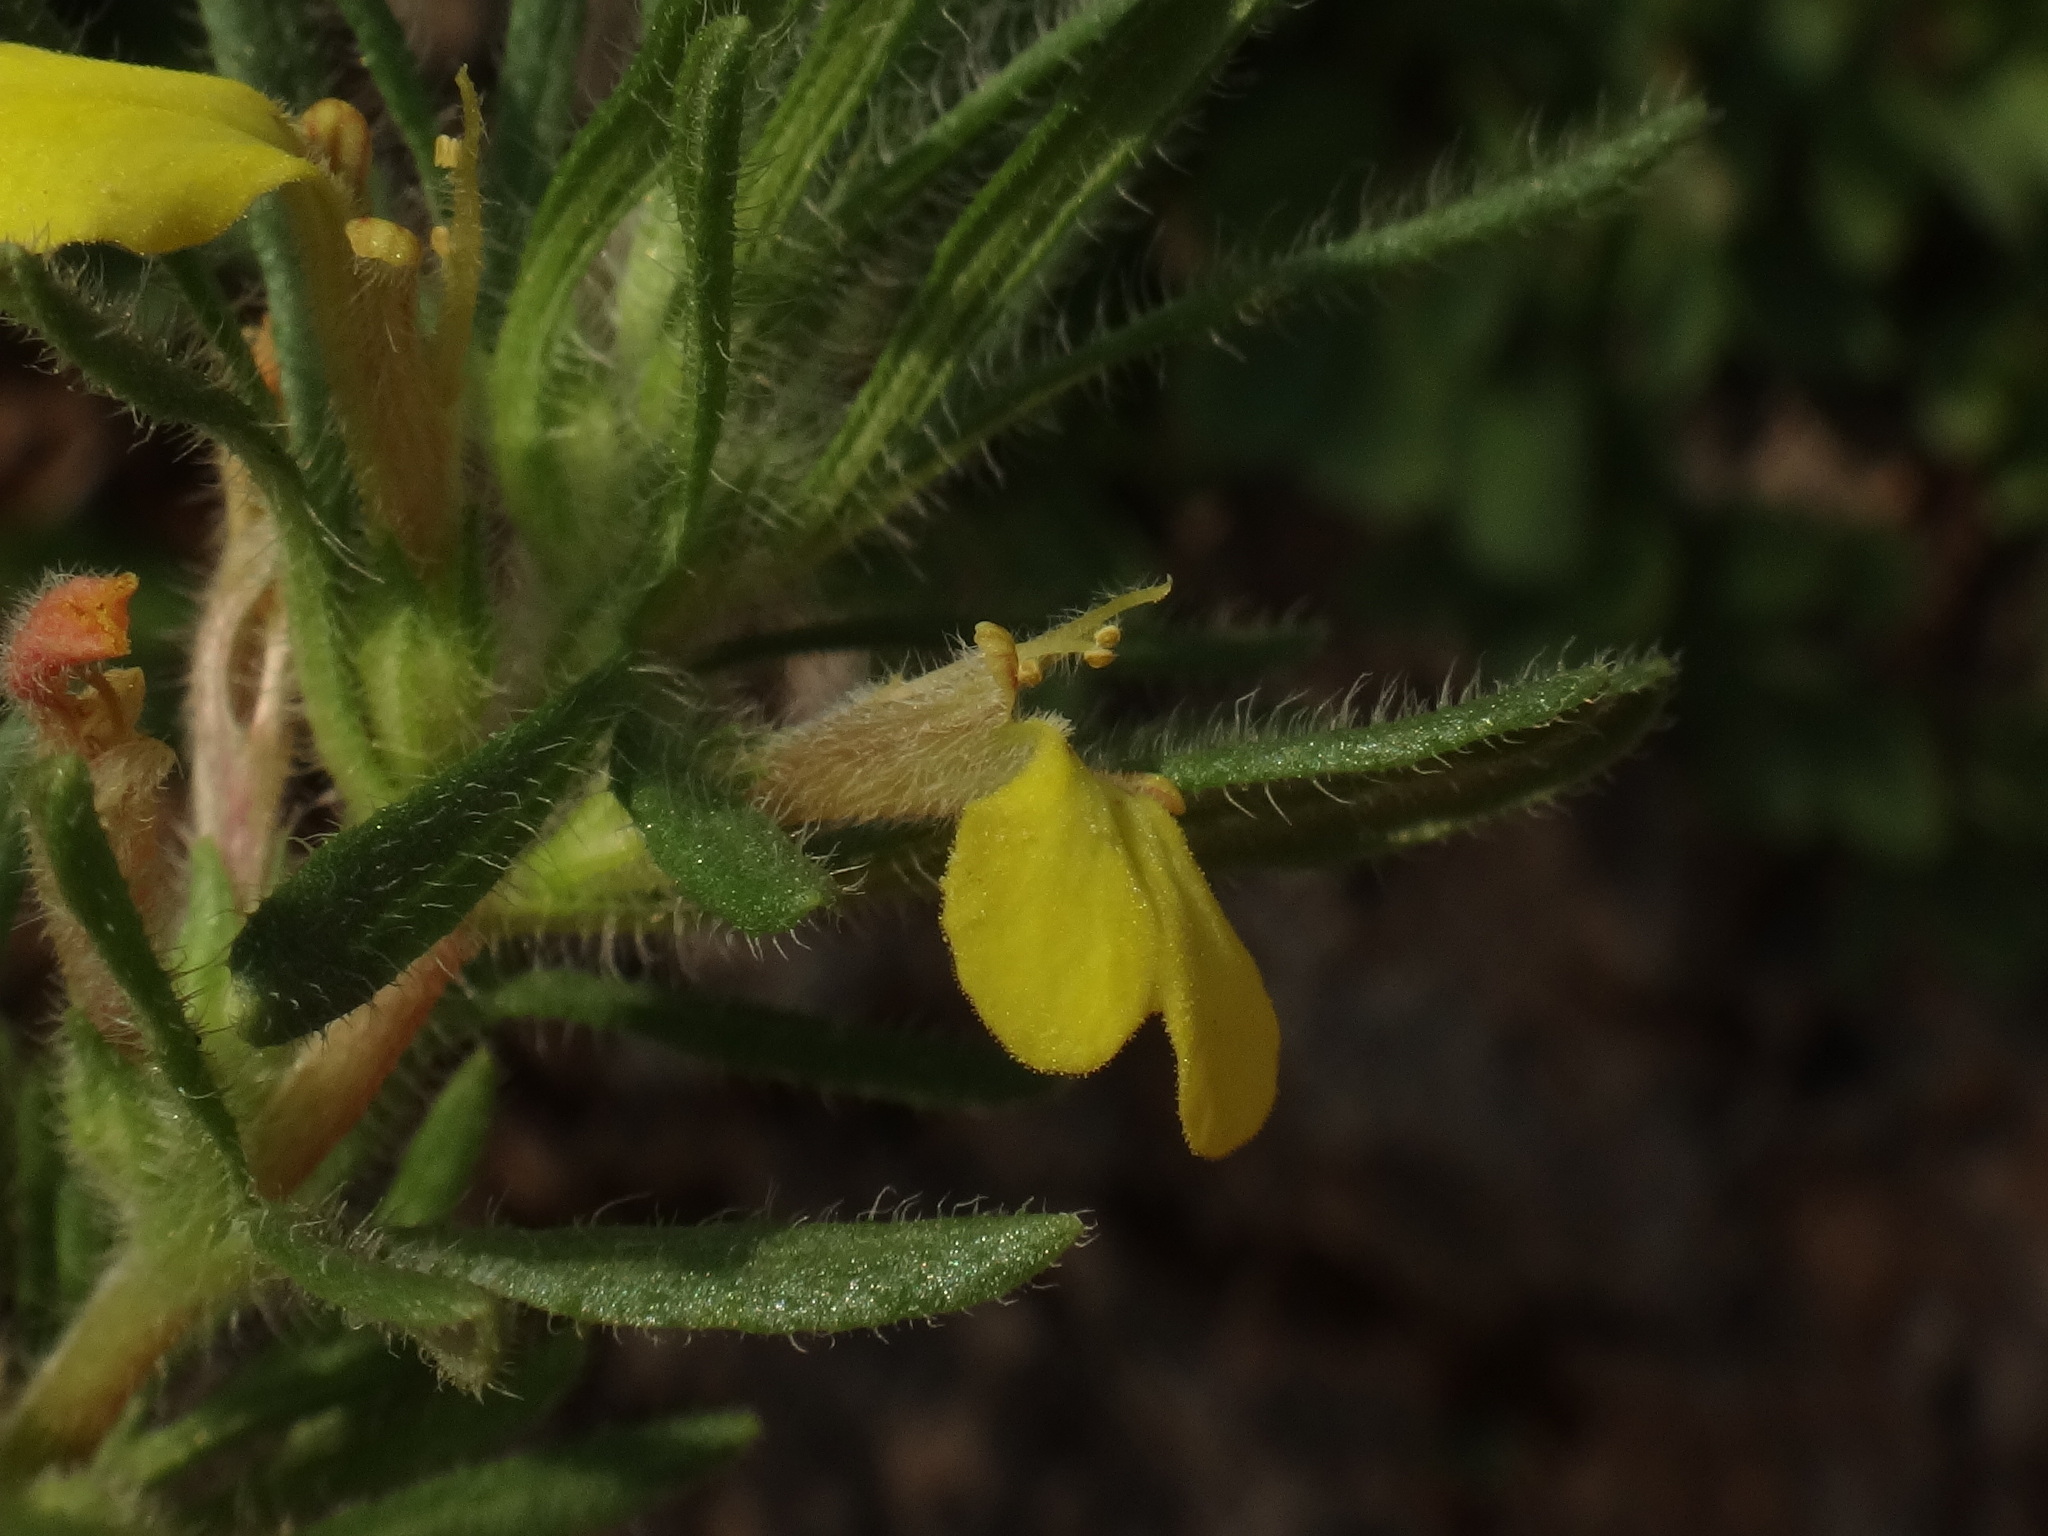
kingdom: Plantae
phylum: Tracheophyta
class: Magnoliopsida
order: Lamiales
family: Lamiaceae
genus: Ajuga
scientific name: Ajuga chamaepitys
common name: Ground-pine
